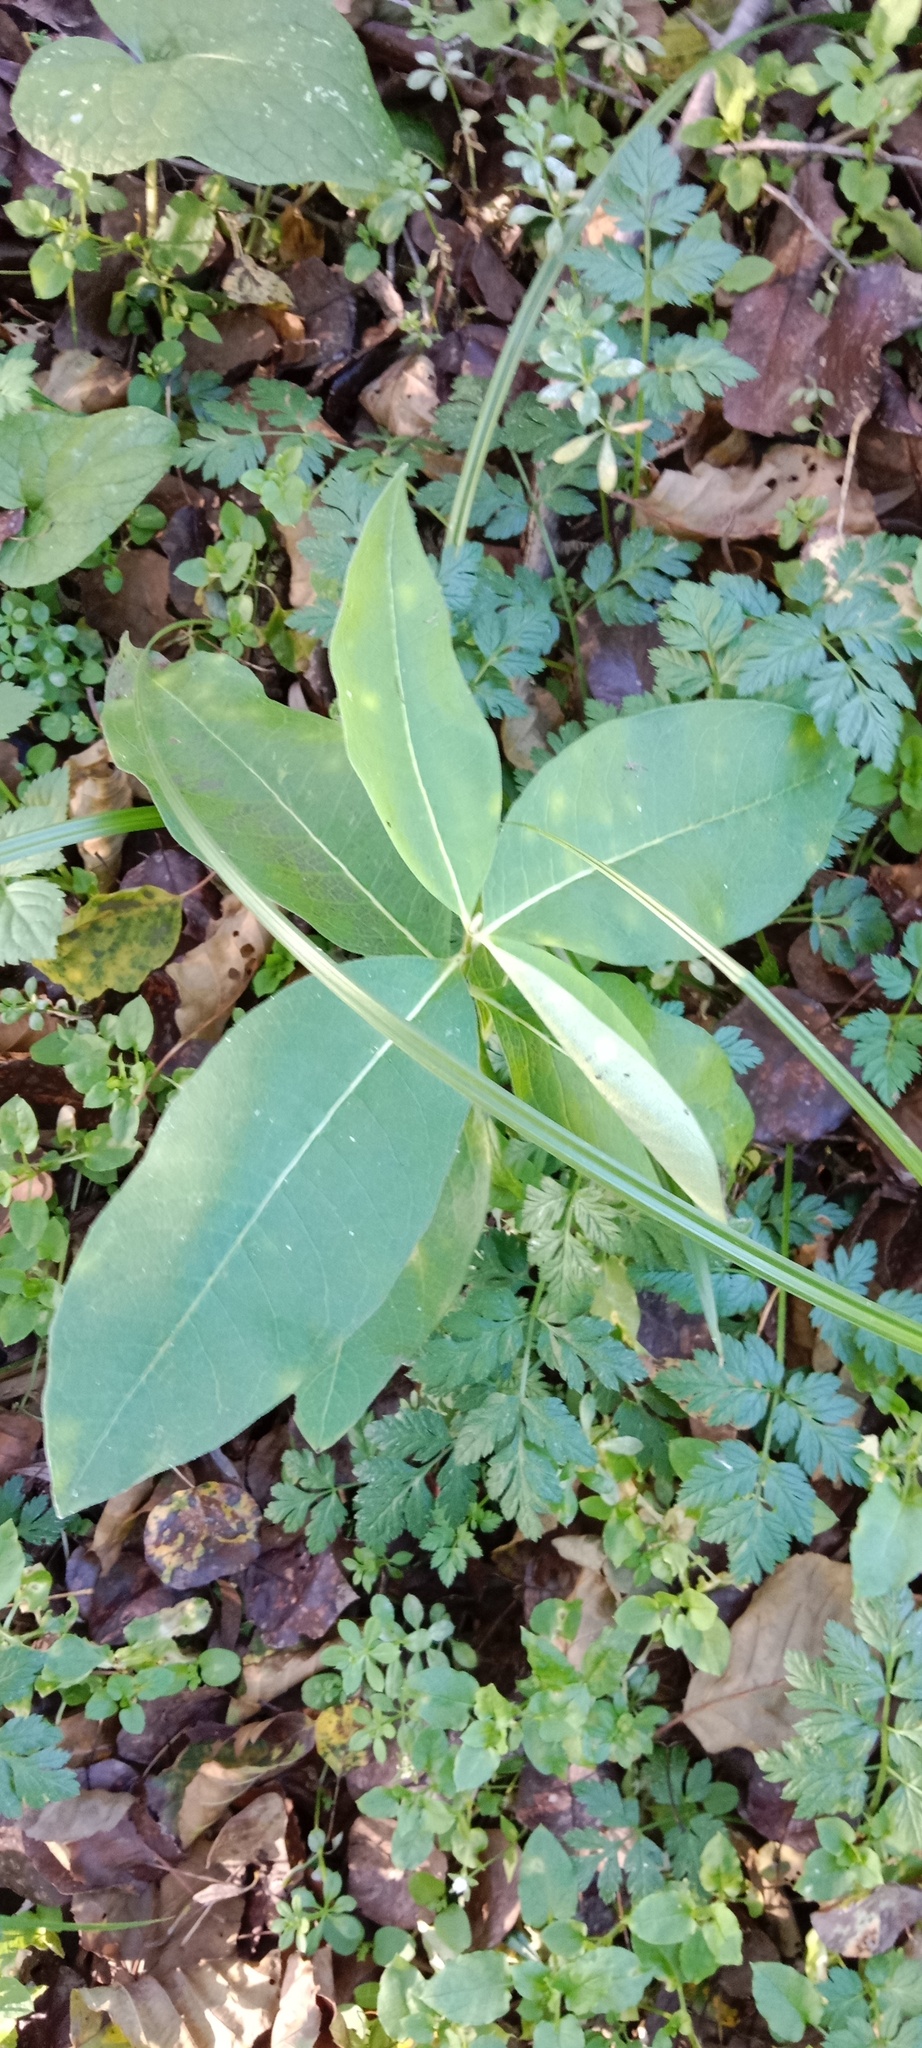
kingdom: Plantae
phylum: Tracheophyta
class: Magnoliopsida
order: Gentianales
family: Apocynaceae
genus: Asclepias
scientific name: Asclepias syriaca
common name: Common milkweed
